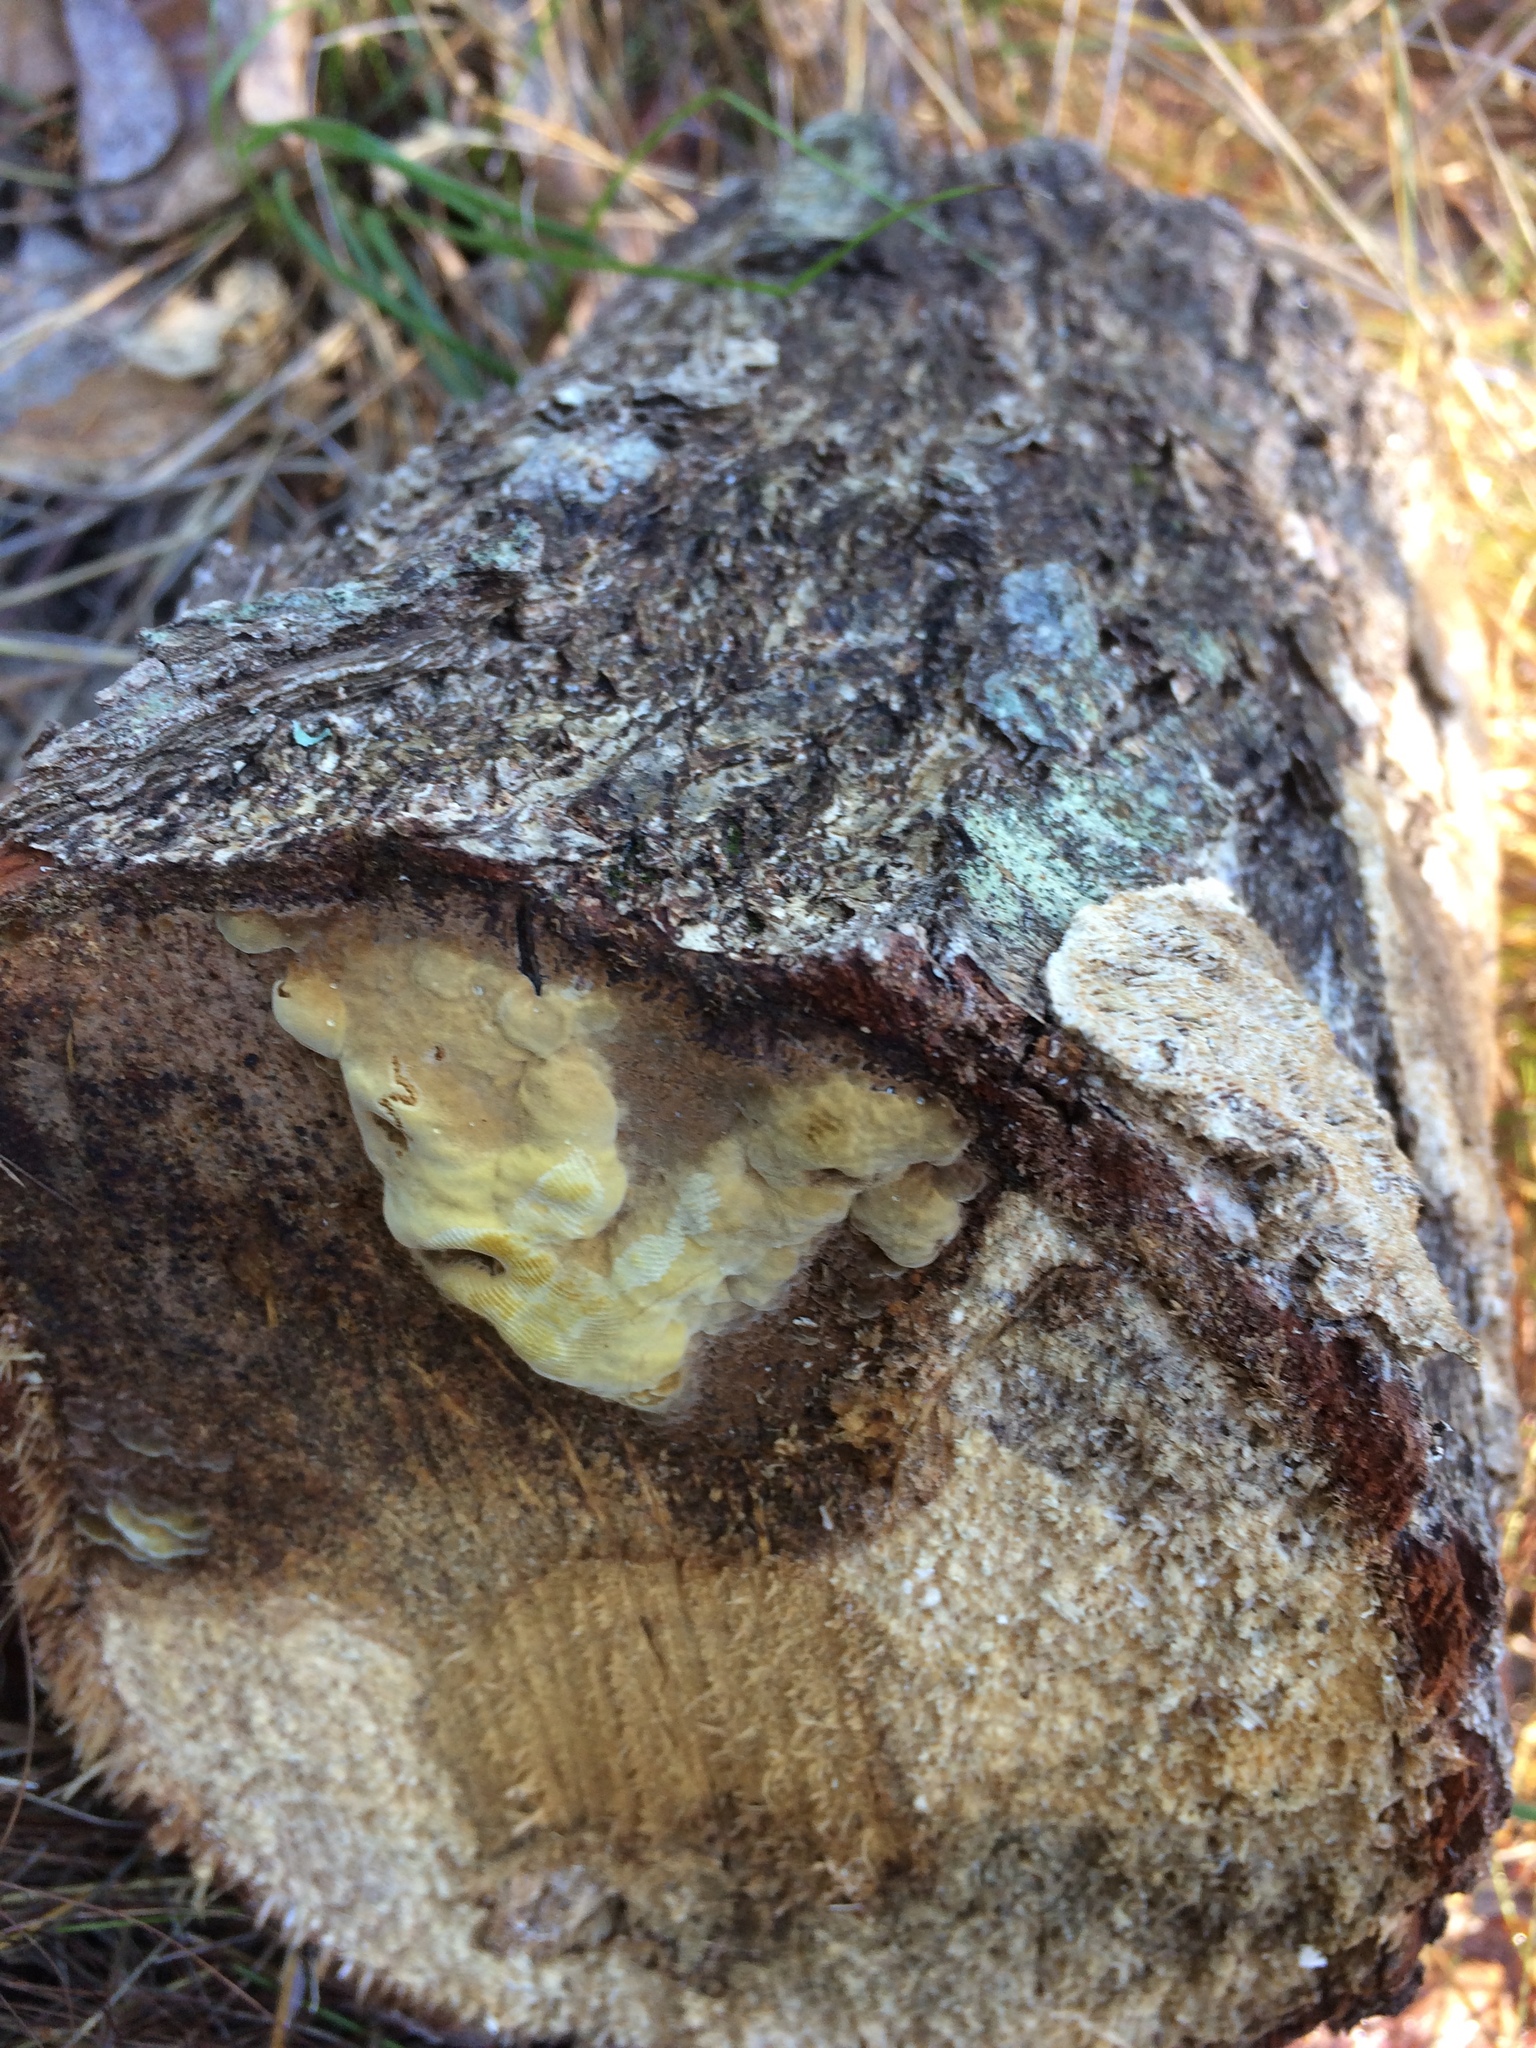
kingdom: Fungi
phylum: Basidiomycota
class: Agaricomycetes
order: Hymenochaetales
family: Hymenochaetaceae
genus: Phellinus
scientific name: Phellinus gilvus
